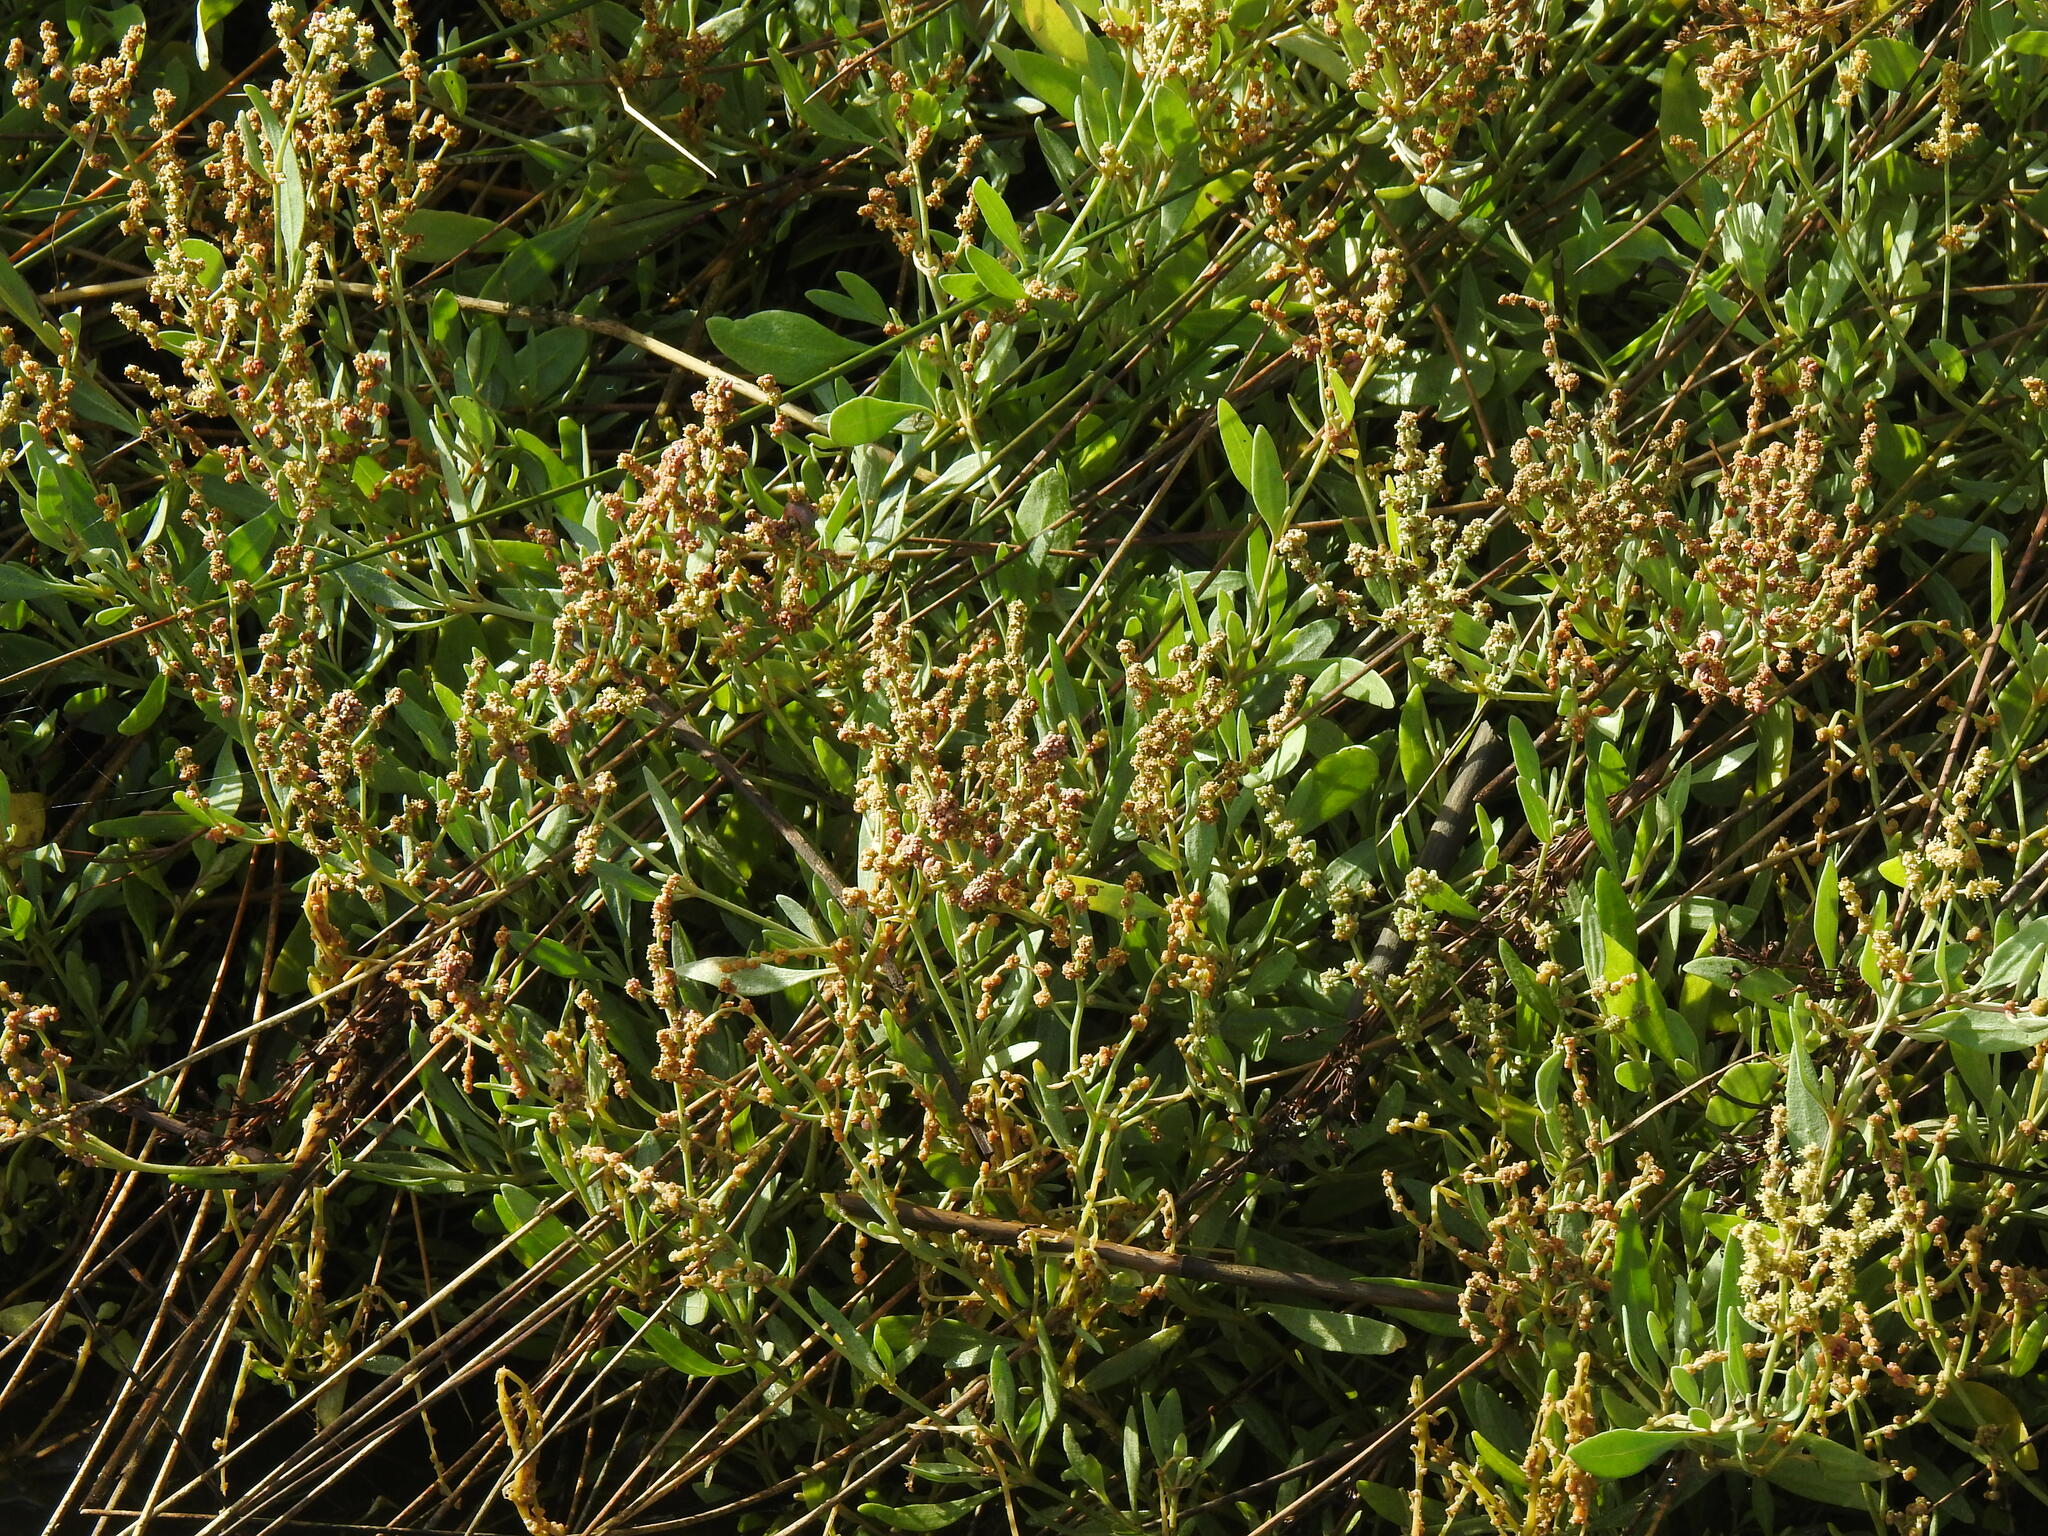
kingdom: Plantae
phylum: Tracheophyta
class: Magnoliopsida
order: Caryophyllales
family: Amaranthaceae
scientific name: Amaranthaceae
